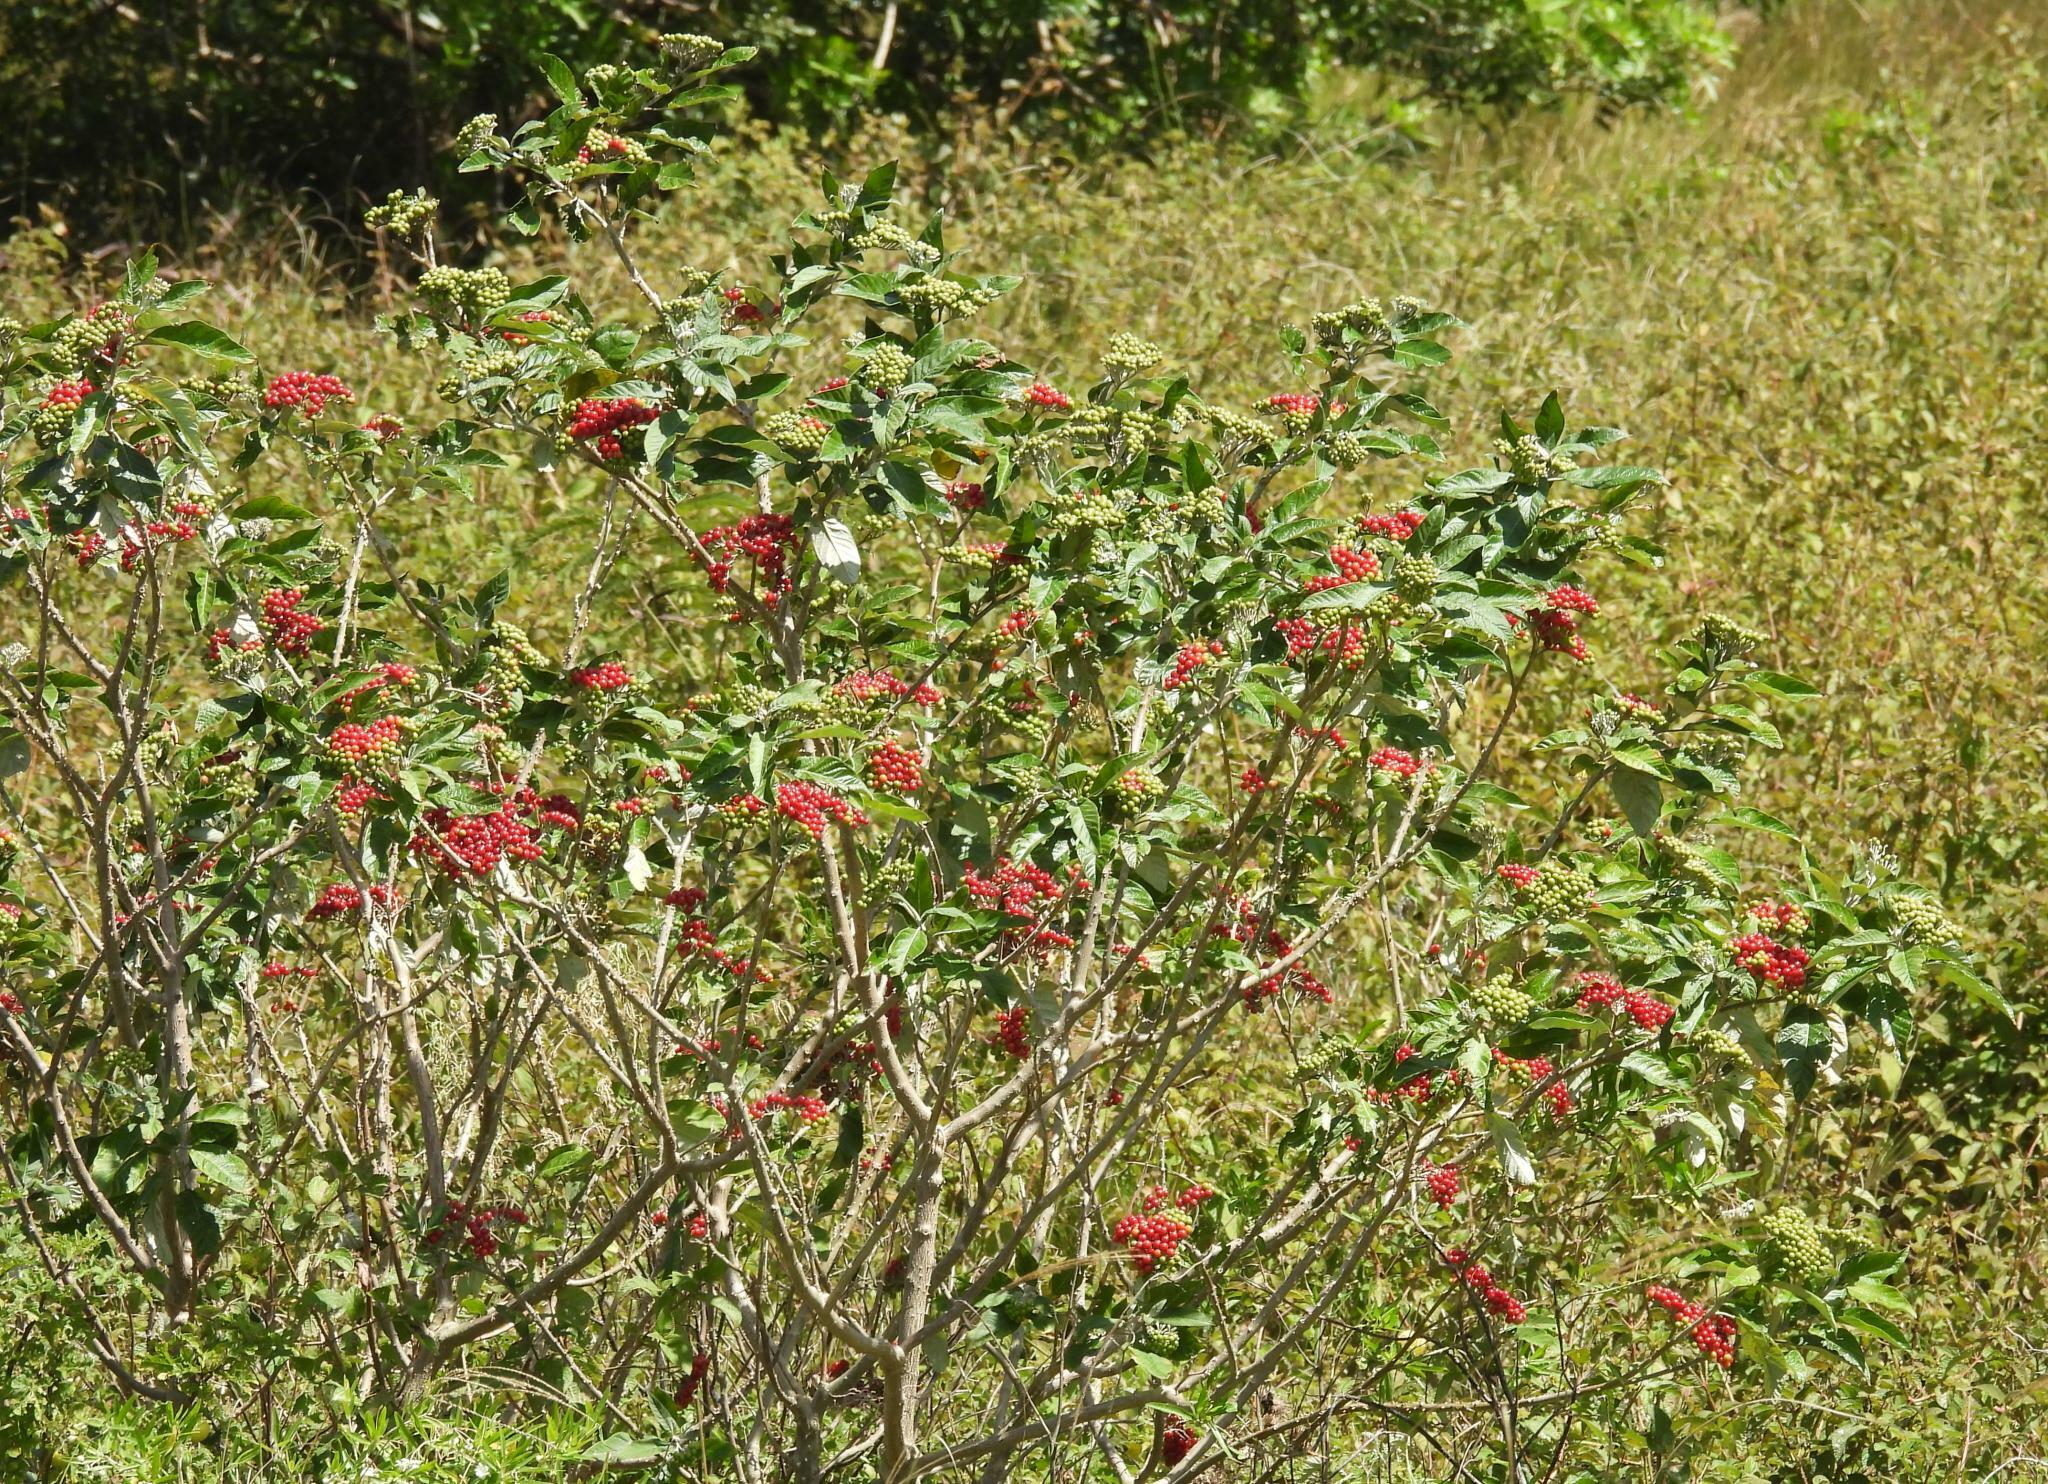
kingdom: Plantae
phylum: Tracheophyta
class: Magnoliopsida
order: Solanales
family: Solanaceae
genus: Solanum
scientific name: Solanum giganteum
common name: Healing-leaf-tree
